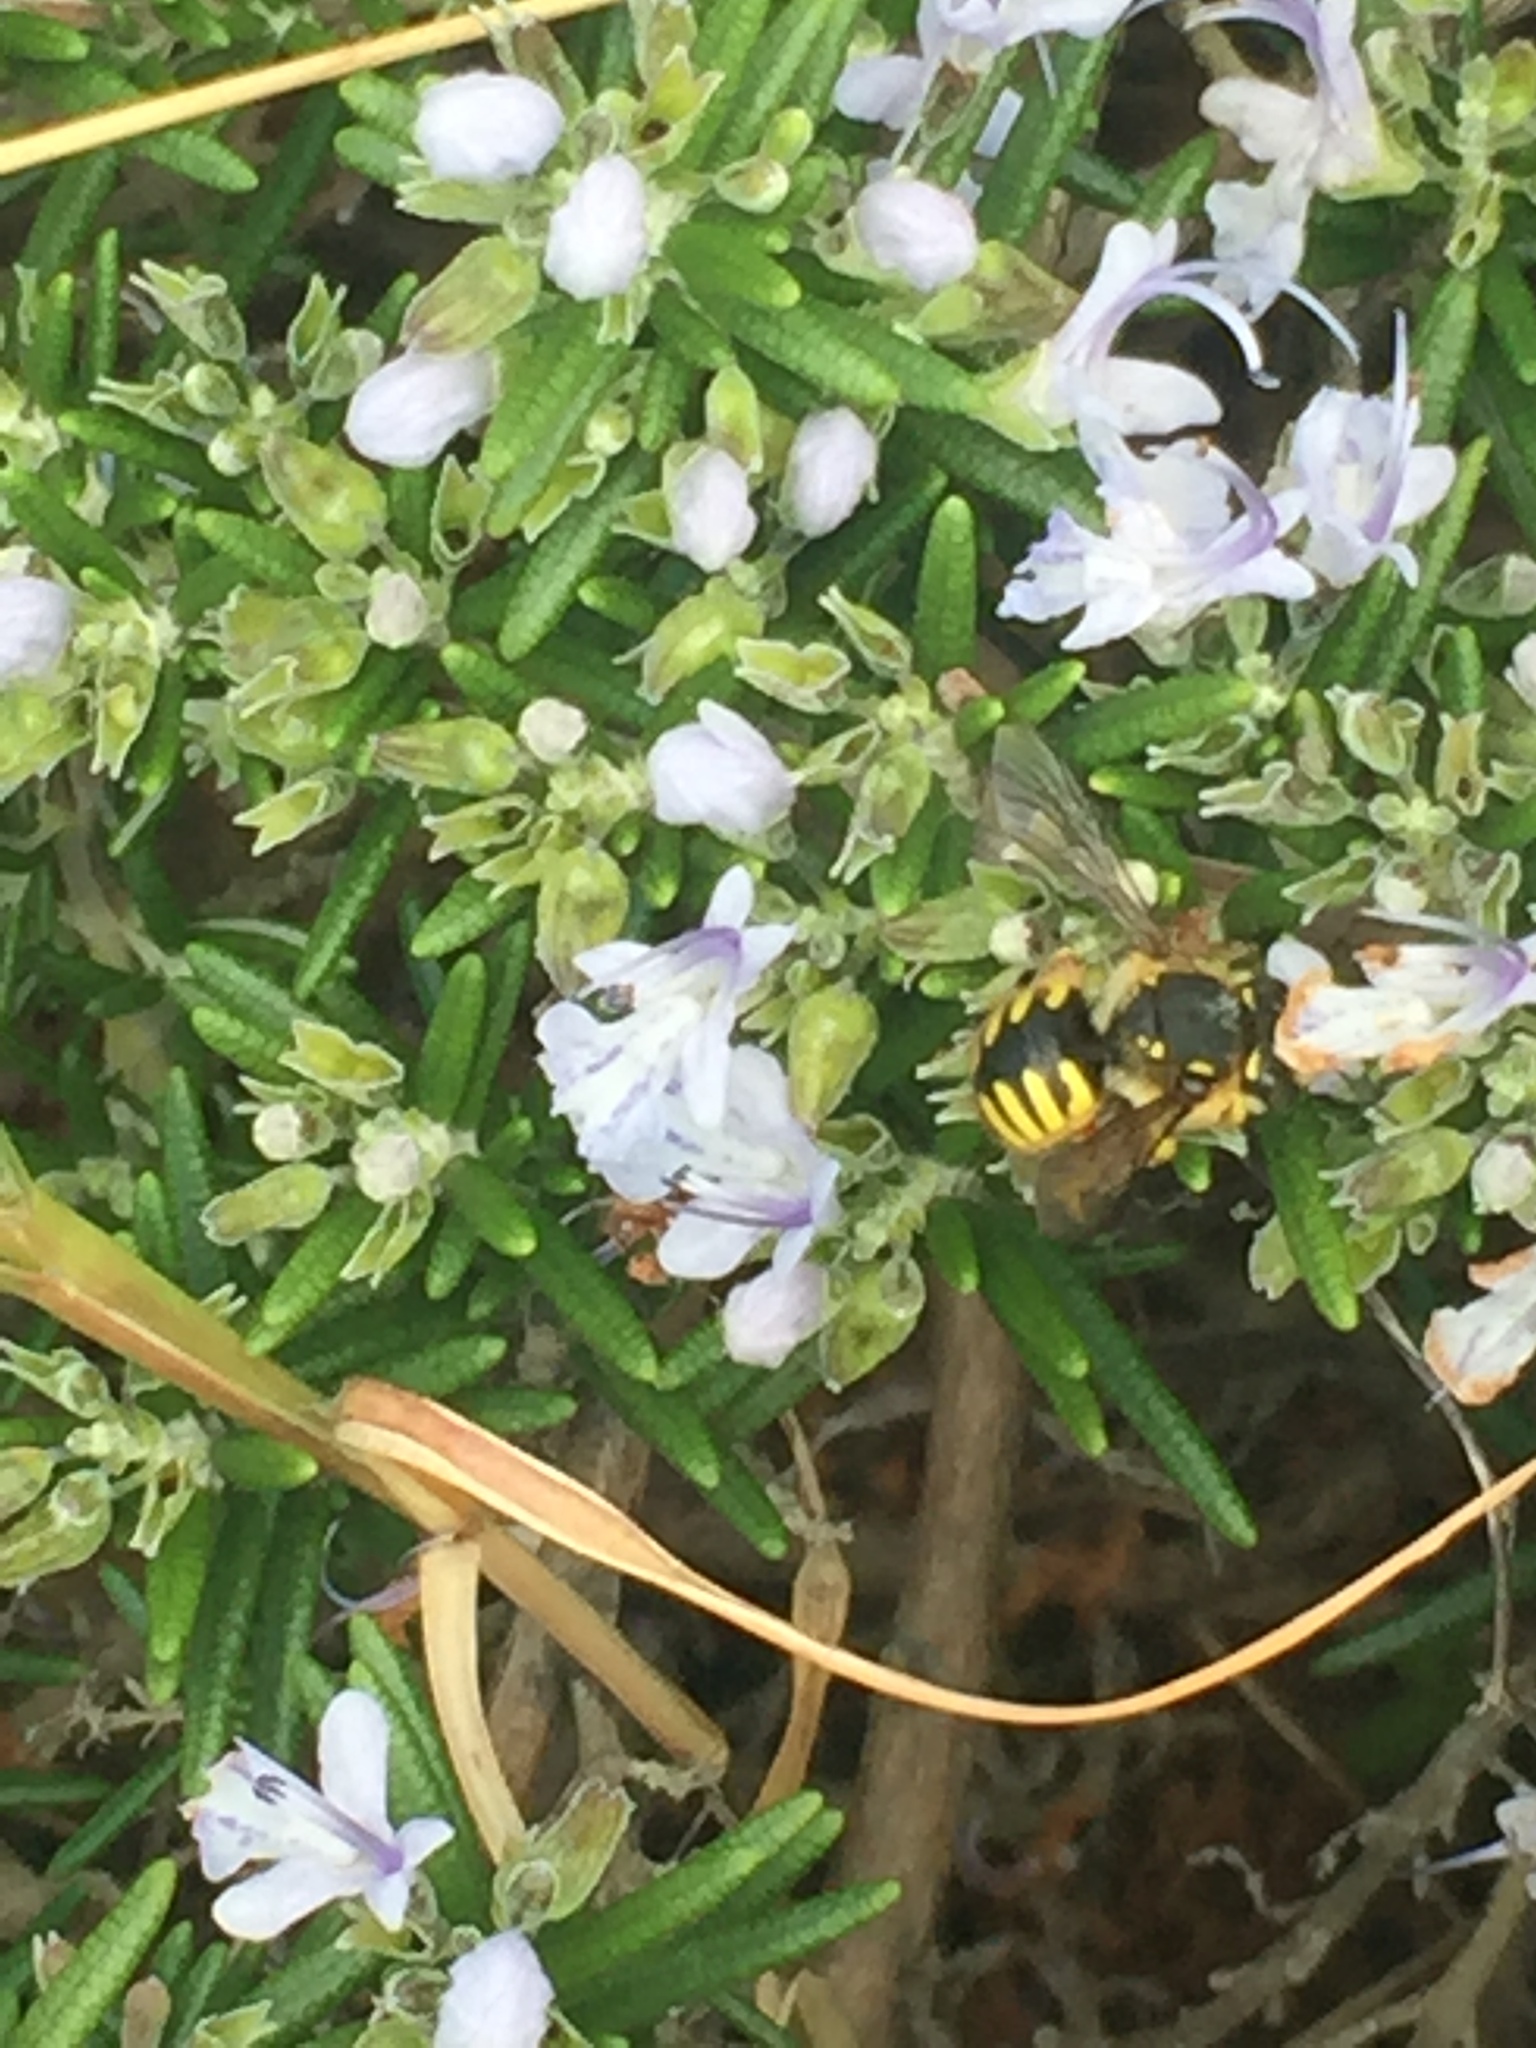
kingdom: Animalia
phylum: Arthropoda
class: Insecta
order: Hymenoptera
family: Megachilidae
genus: Anthidium
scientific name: Anthidium manicatum
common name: Wool carder bee
